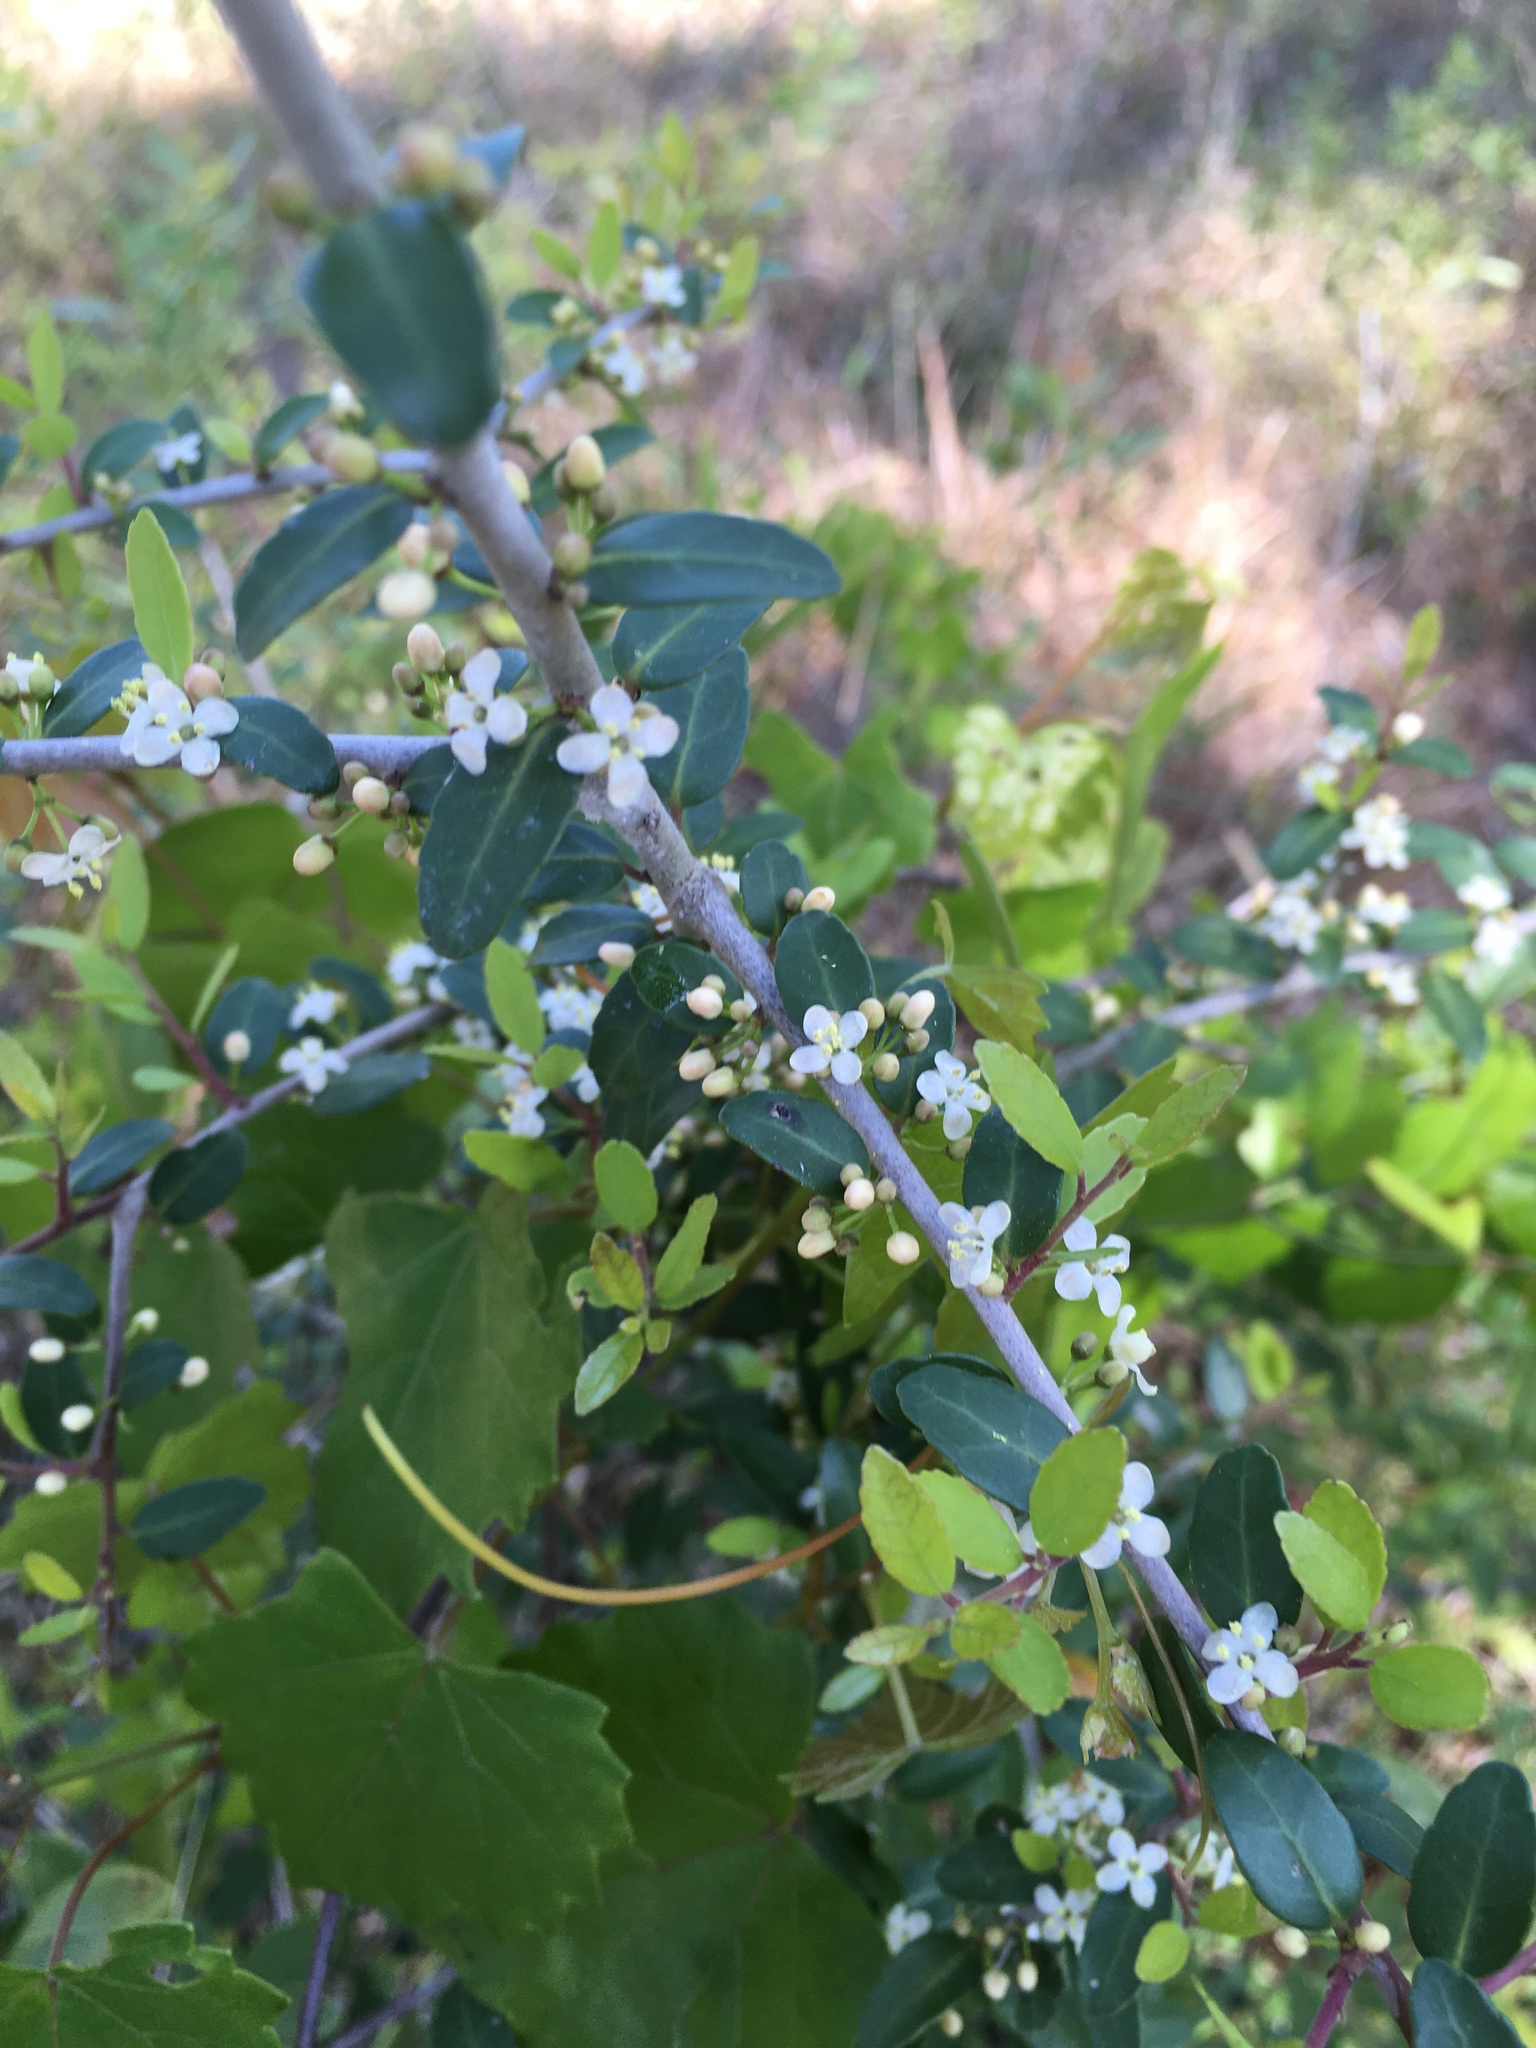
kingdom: Plantae
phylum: Tracheophyta
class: Magnoliopsida
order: Aquifoliales
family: Aquifoliaceae
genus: Ilex
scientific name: Ilex vomitoria
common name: Yaupon holly
